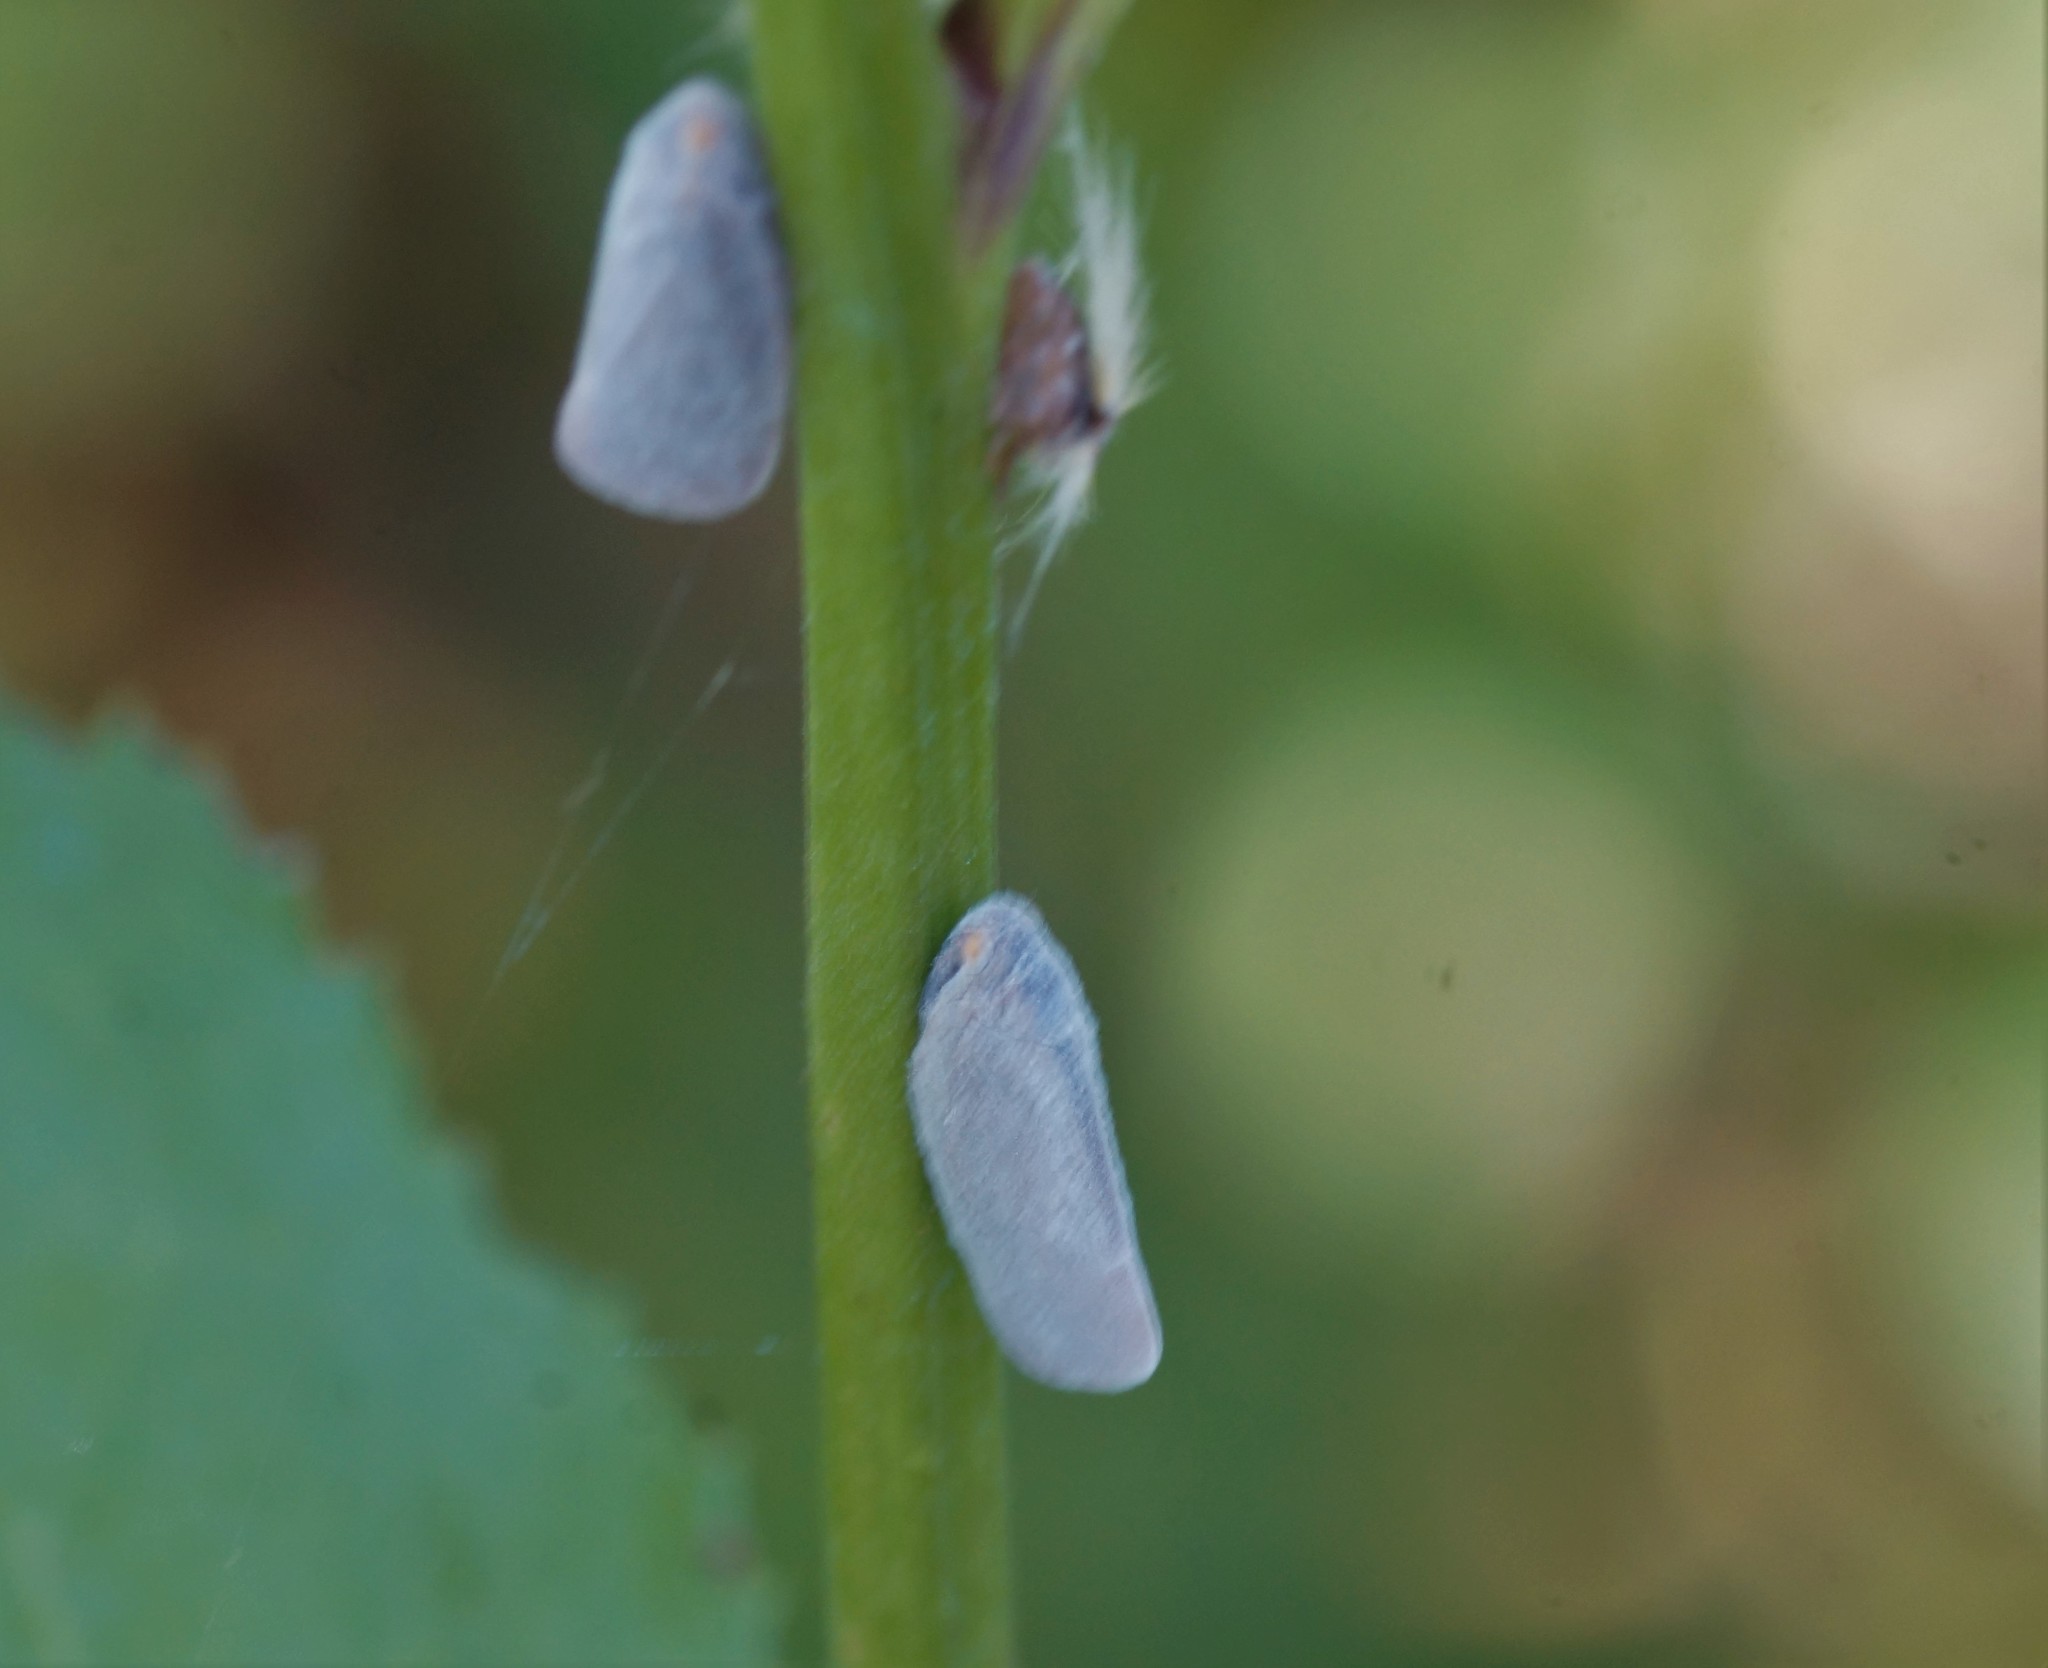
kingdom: Animalia
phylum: Arthropoda
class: Insecta
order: Hemiptera
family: Flatidae
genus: Anzora
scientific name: Anzora unicolor
